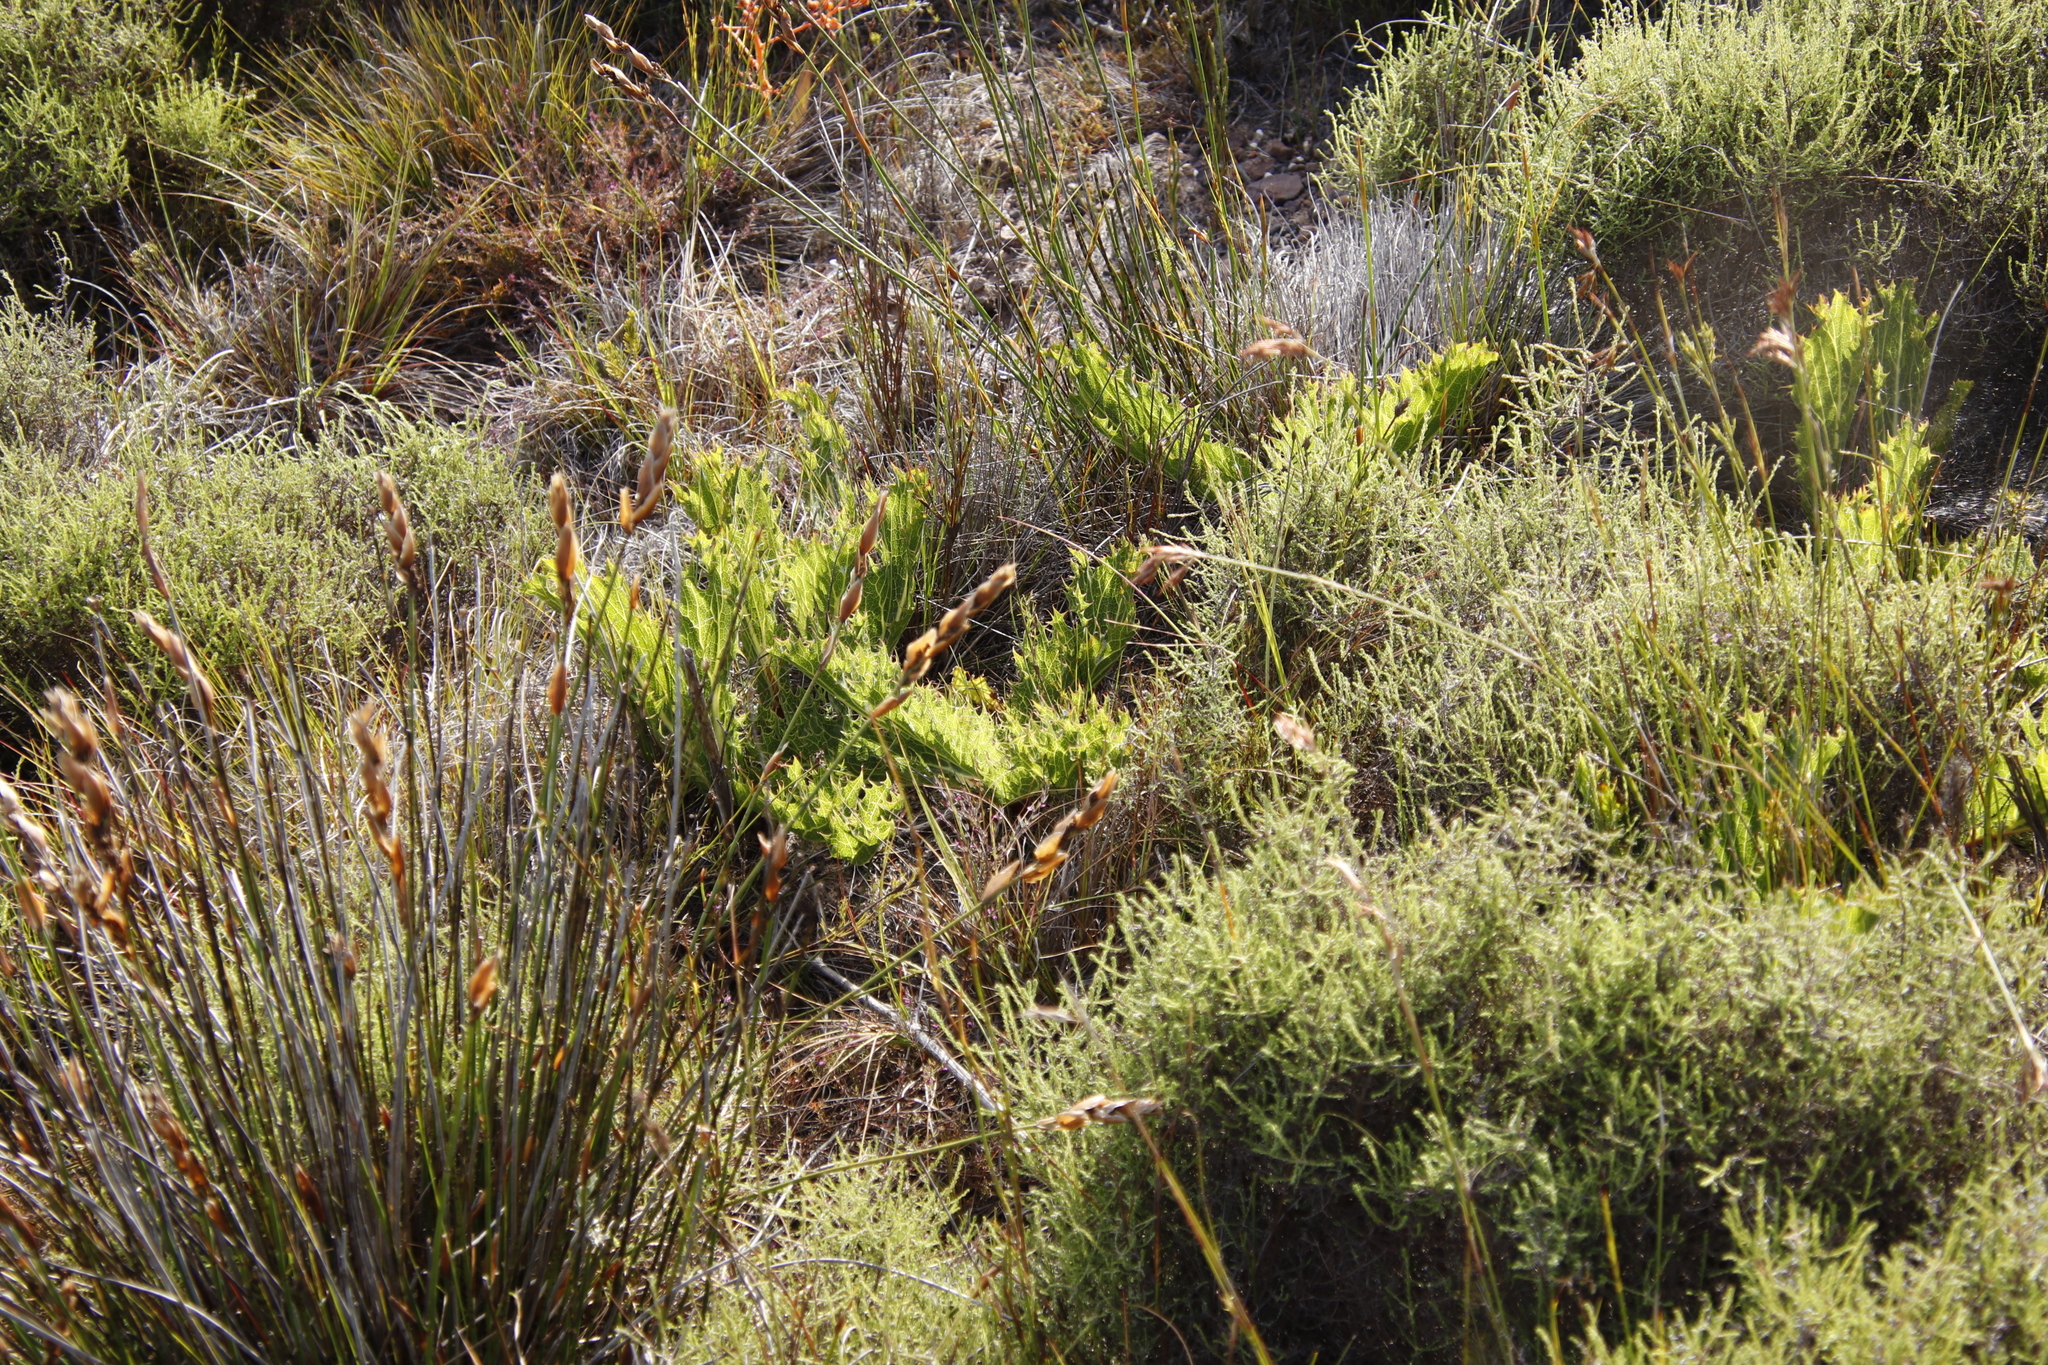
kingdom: Plantae
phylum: Tracheophyta
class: Magnoliopsida
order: Apiales
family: Apiaceae
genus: Lichtensteinia
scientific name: Lichtensteinia lacera
